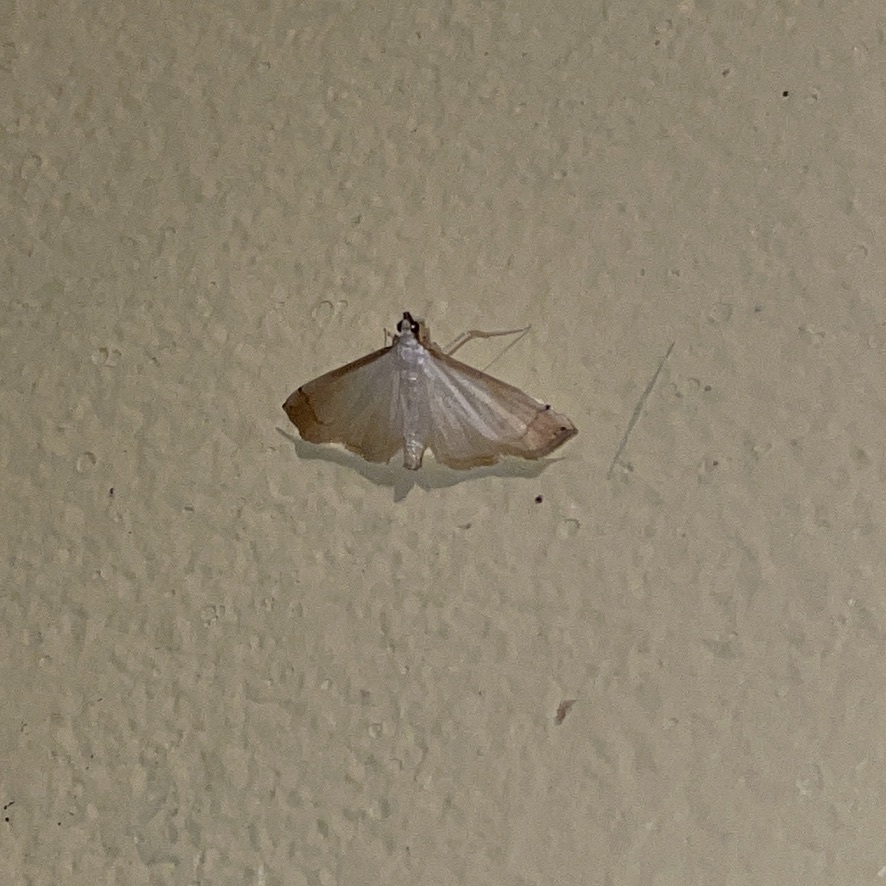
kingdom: Animalia
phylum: Arthropoda
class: Insecta
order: Lepidoptera
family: Crambidae
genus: Stenia
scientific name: Stenia saurialis
